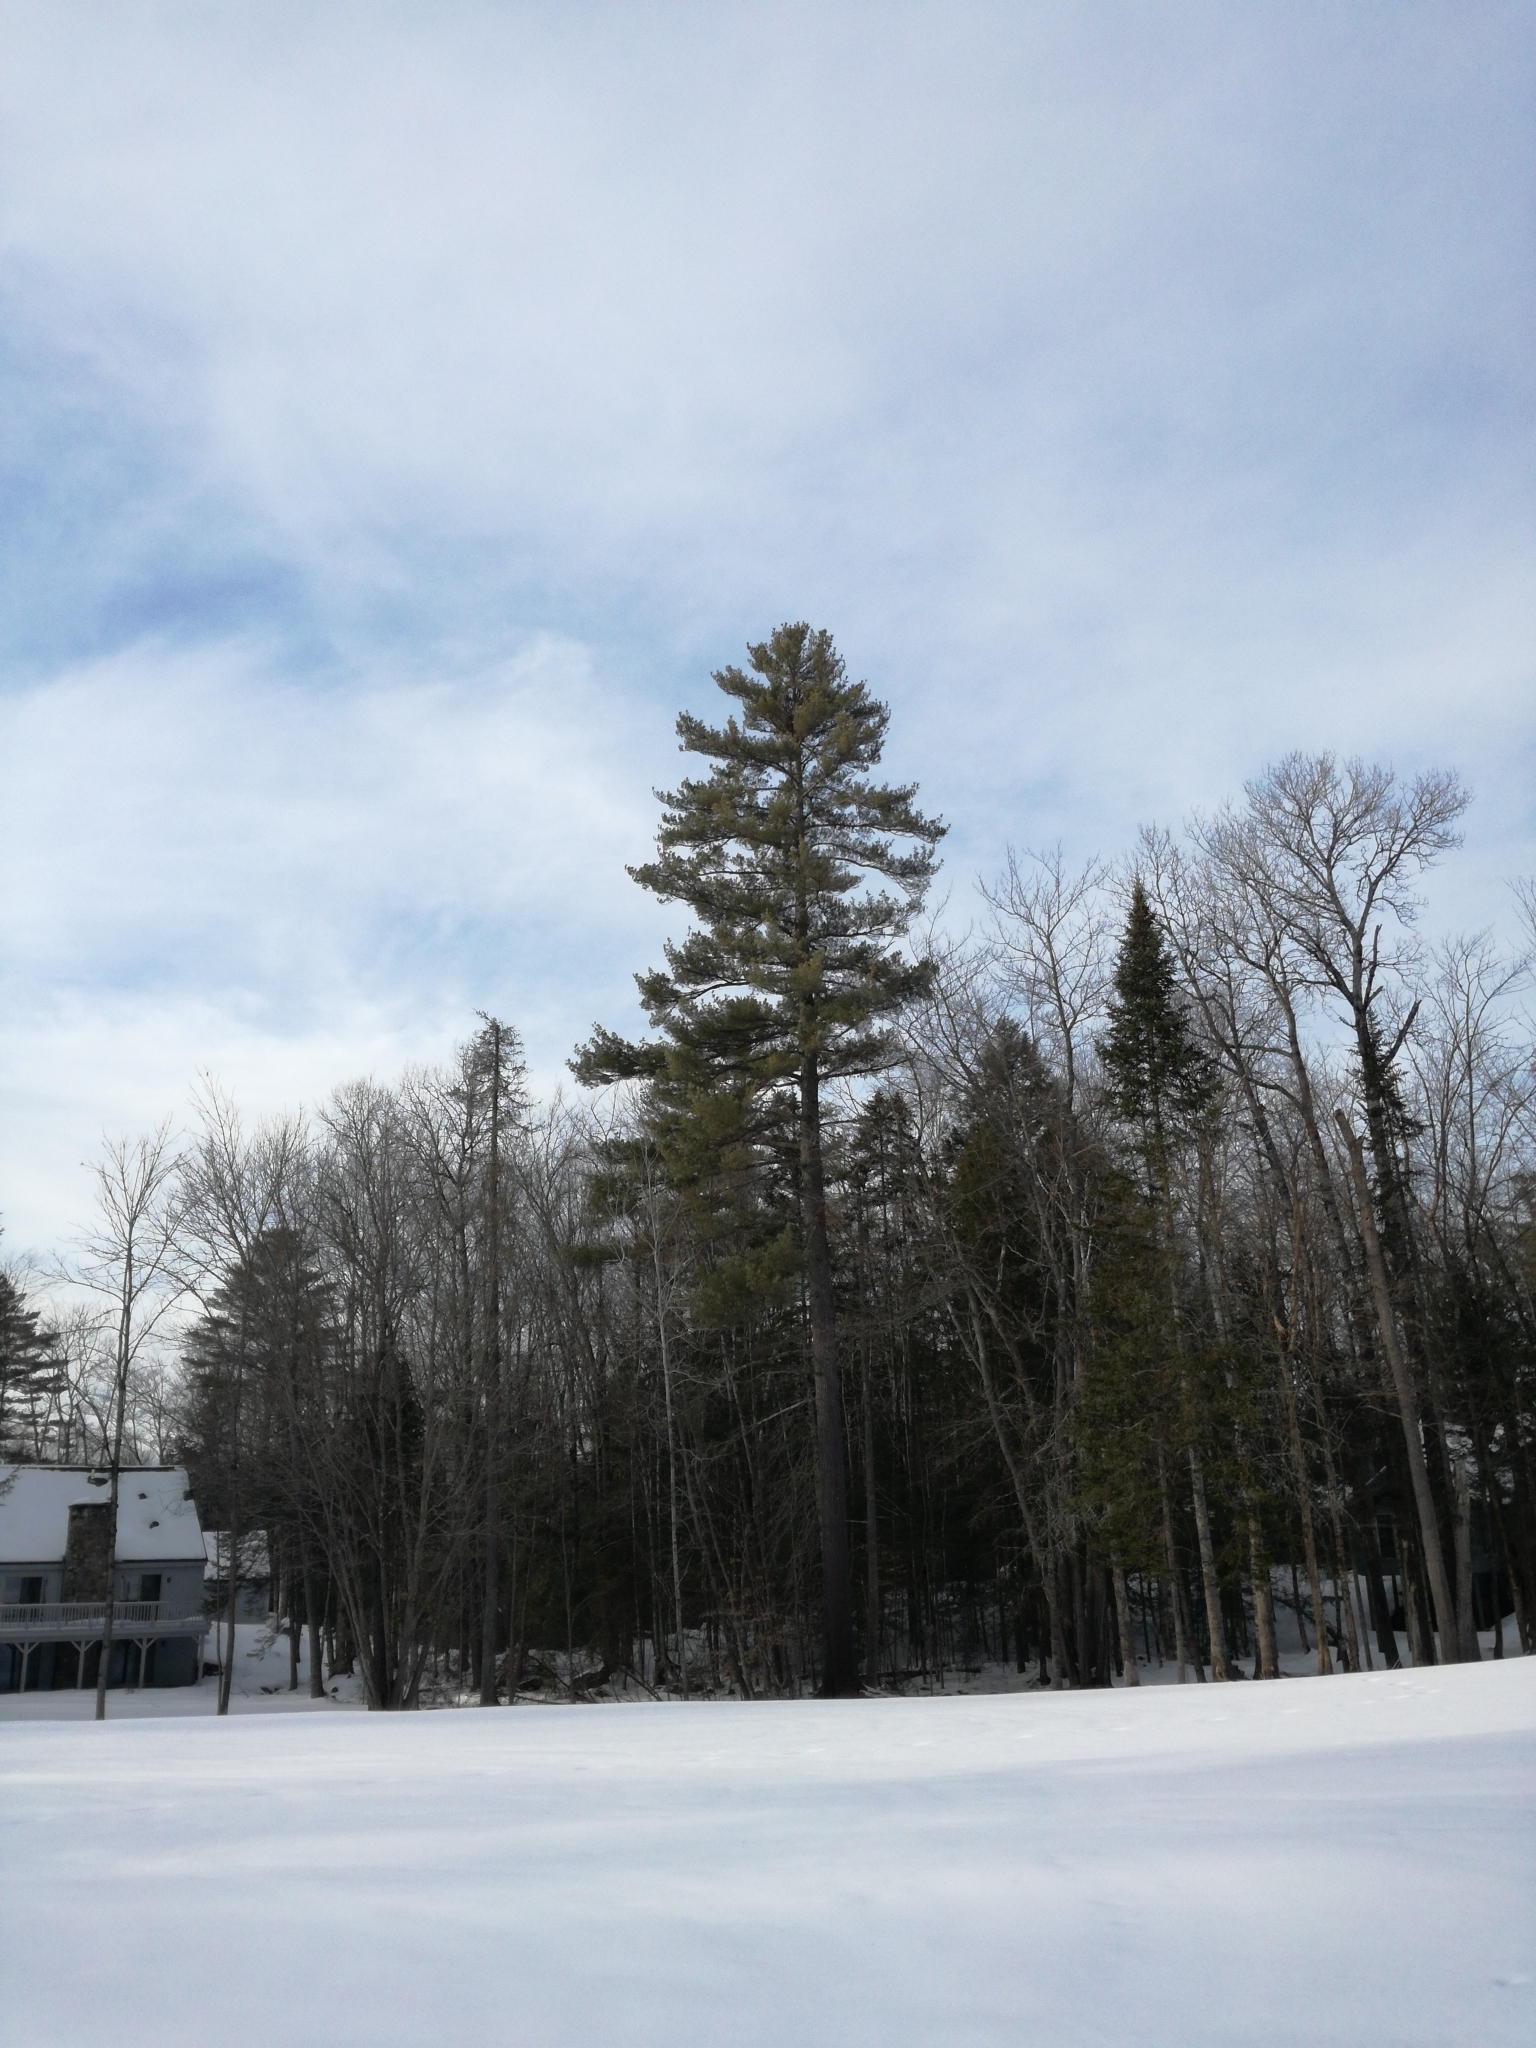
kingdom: Plantae
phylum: Tracheophyta
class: Pinopsida
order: Pinales
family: Pinaceae
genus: Pinus
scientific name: Pinus strobus
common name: Weymouth pine
